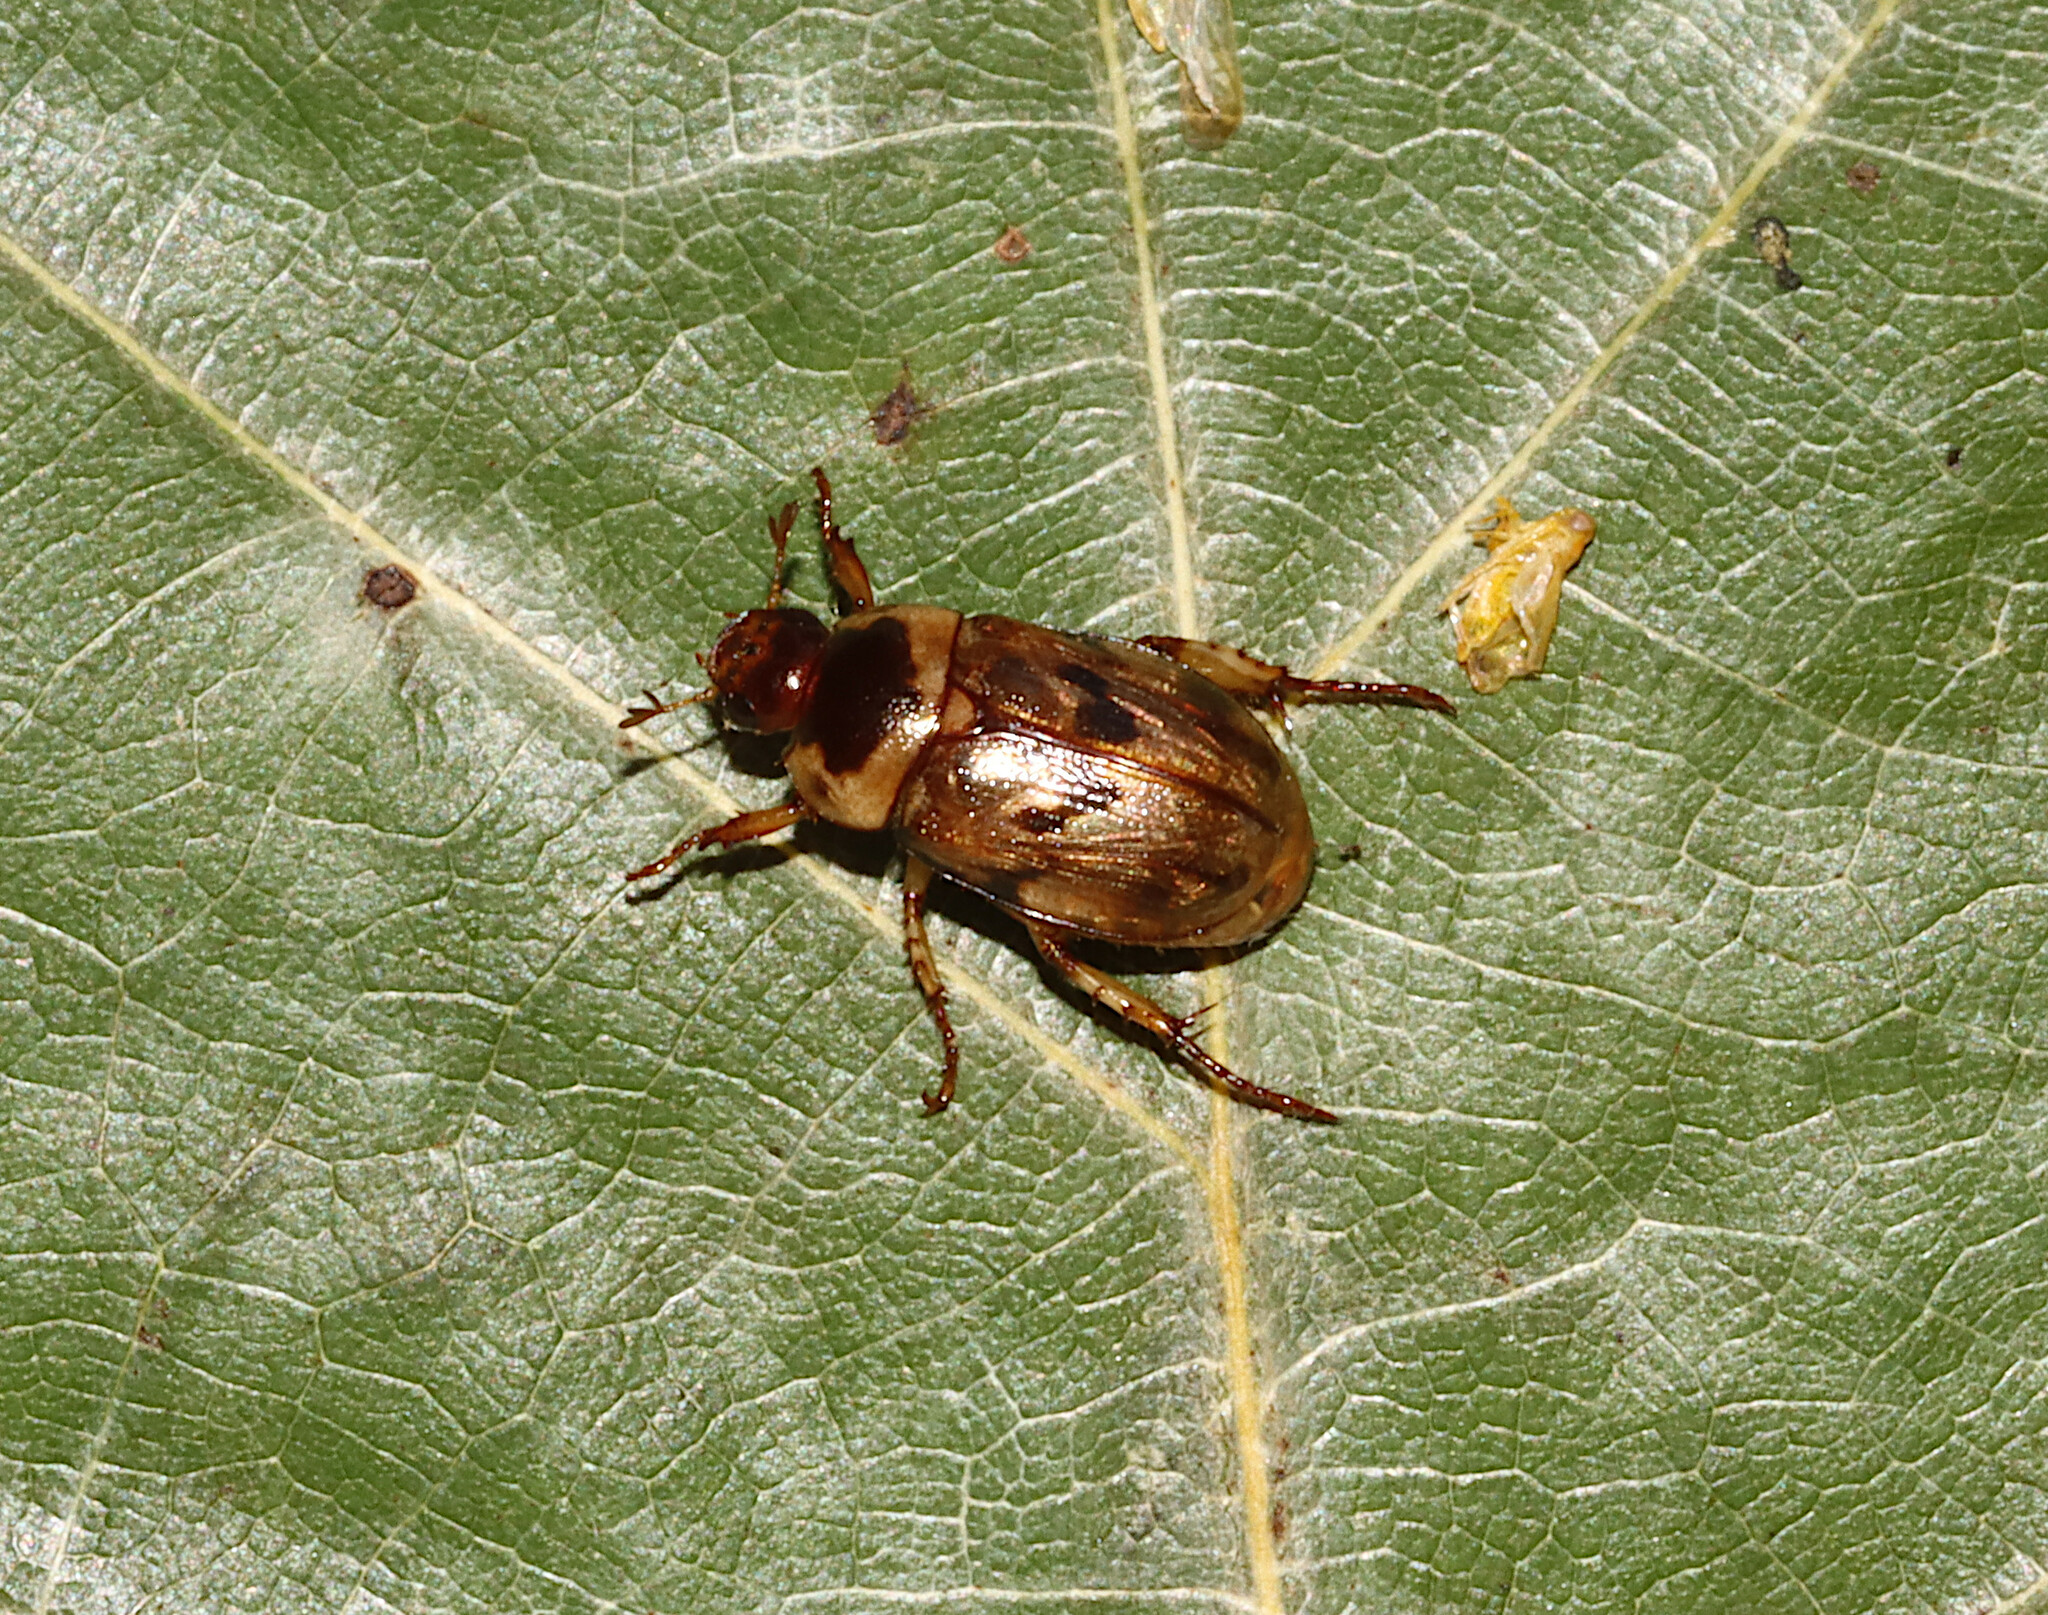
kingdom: Animalia
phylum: Arthropoda
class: Insecta
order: Coleoptera
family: Scarabaeidae
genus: Anomala
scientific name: Anomala innuba
